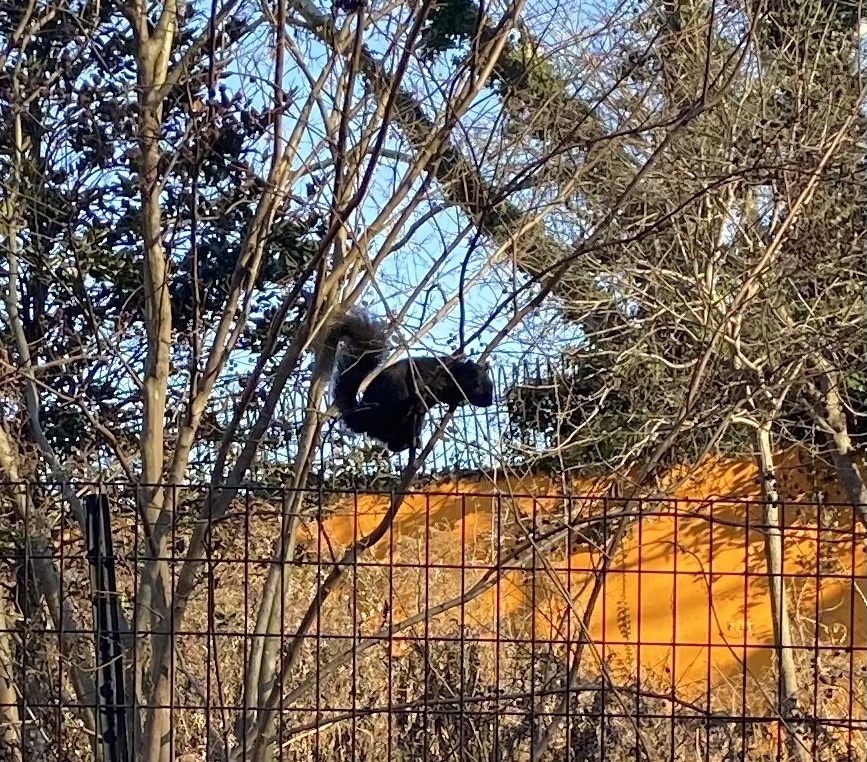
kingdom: Animalia
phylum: Chordata
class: Mammalia
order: Rodentia
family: Sciuridae
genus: Sciurus
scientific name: Sciurus carolinensis
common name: Eastern gray squirrel
